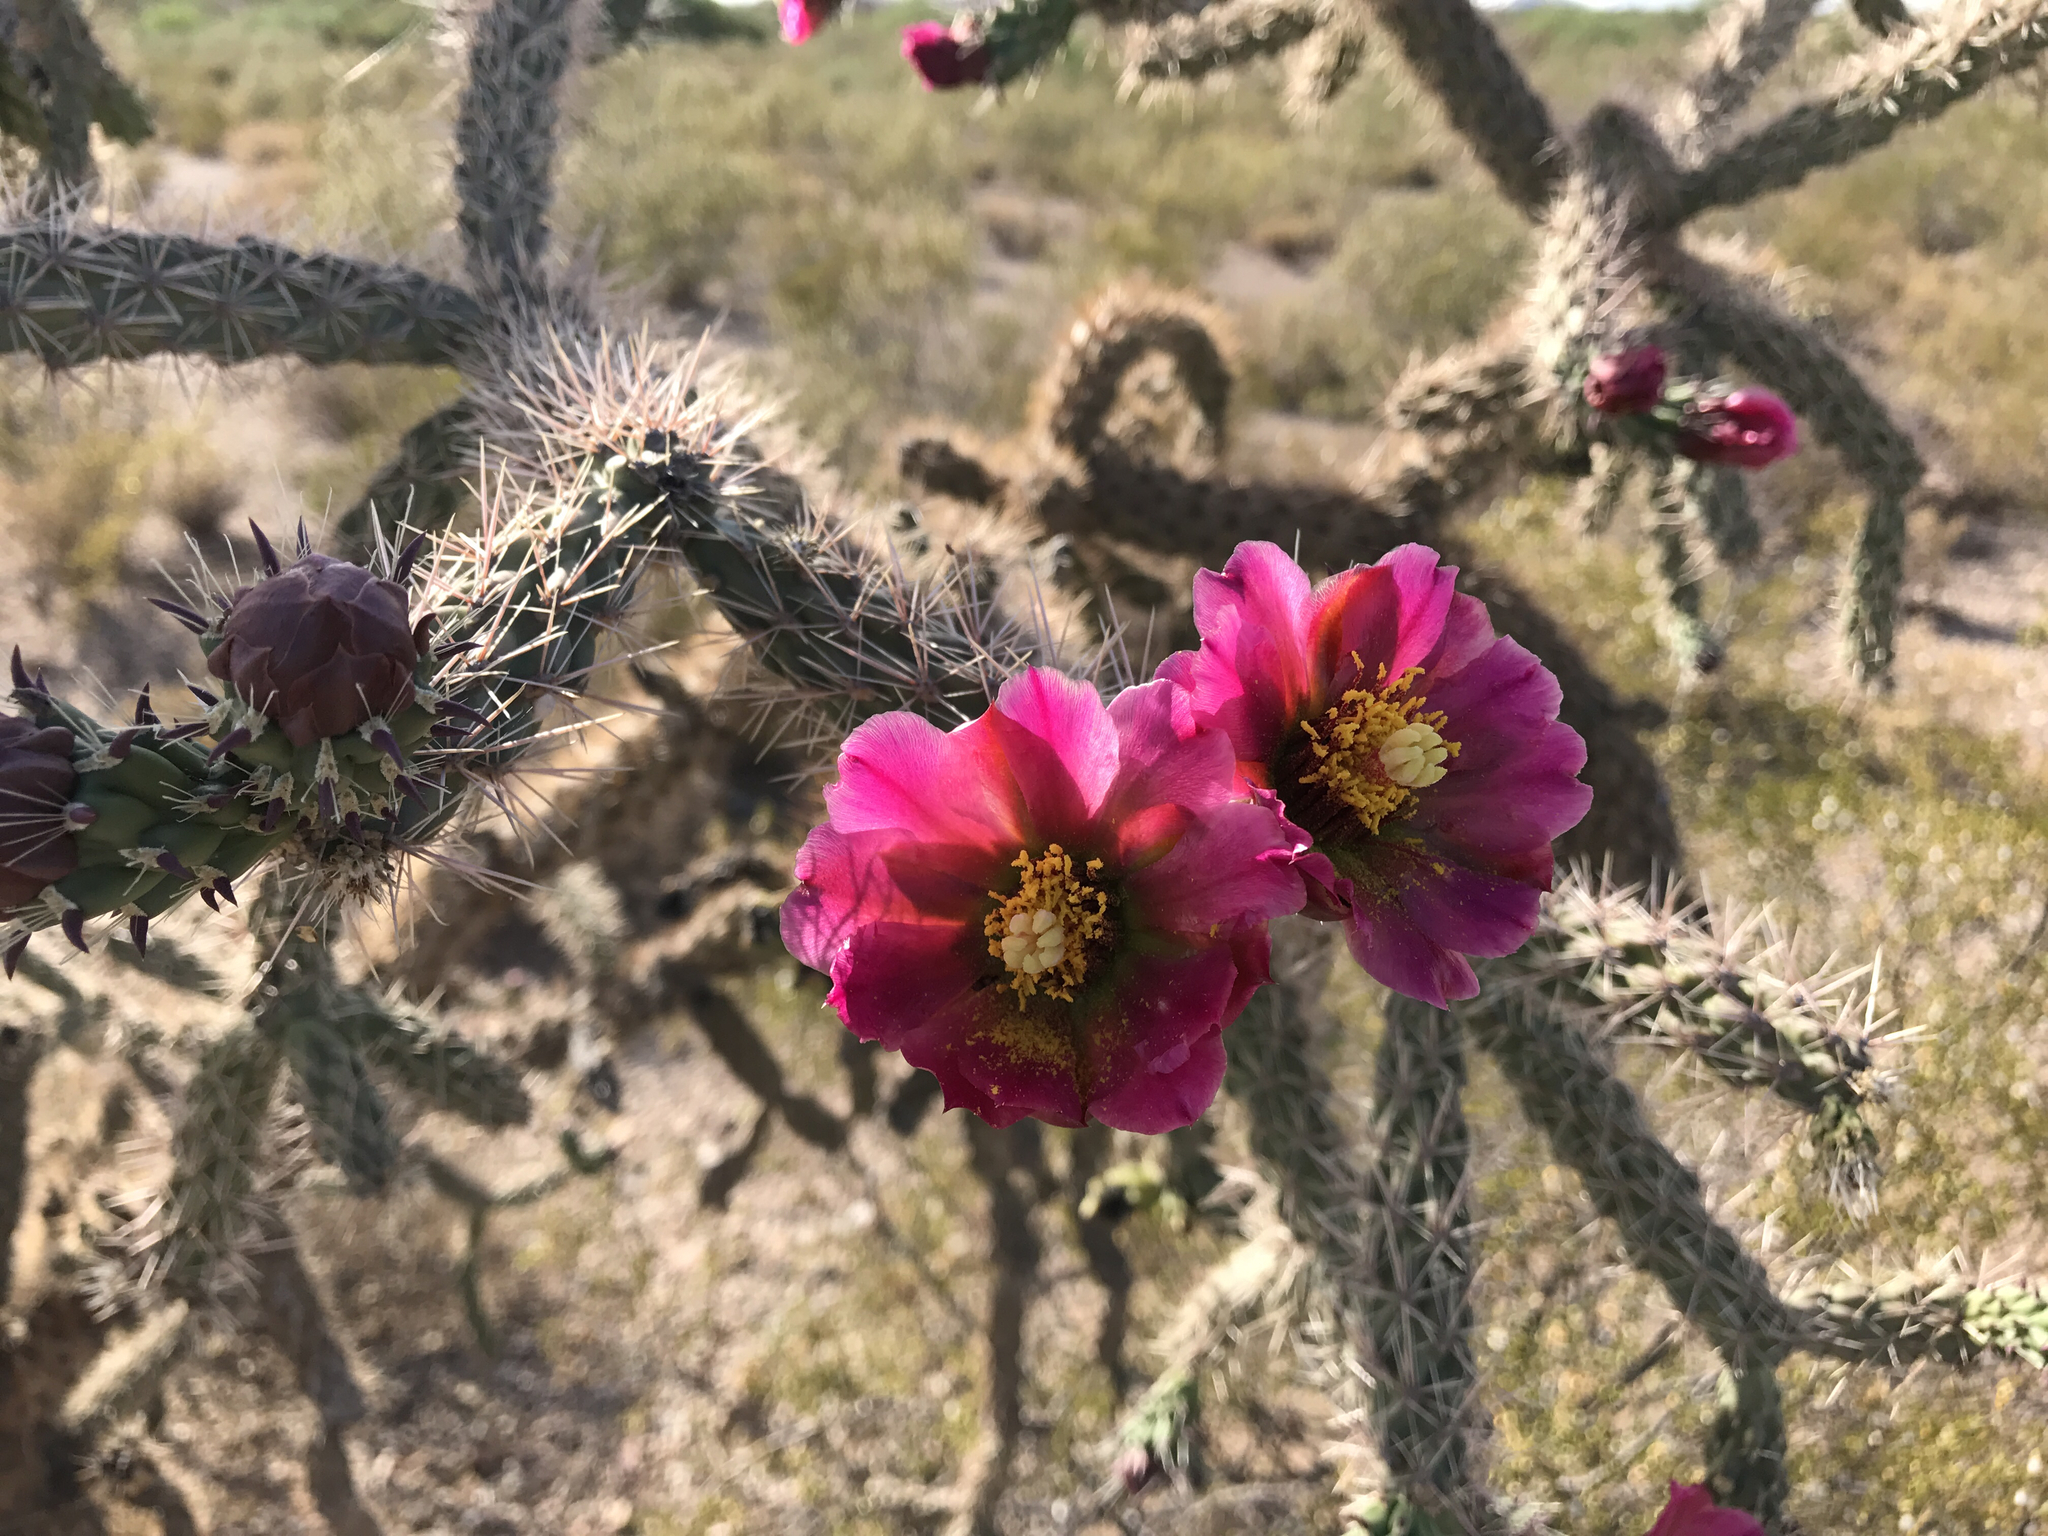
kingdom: Plantae
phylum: Tracheophyta
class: Magnoliopsida
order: Caryophyllales
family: Cactaceae
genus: Cylindropuntia
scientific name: Cylindropuntia imbricata
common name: Candelabrum cactus
